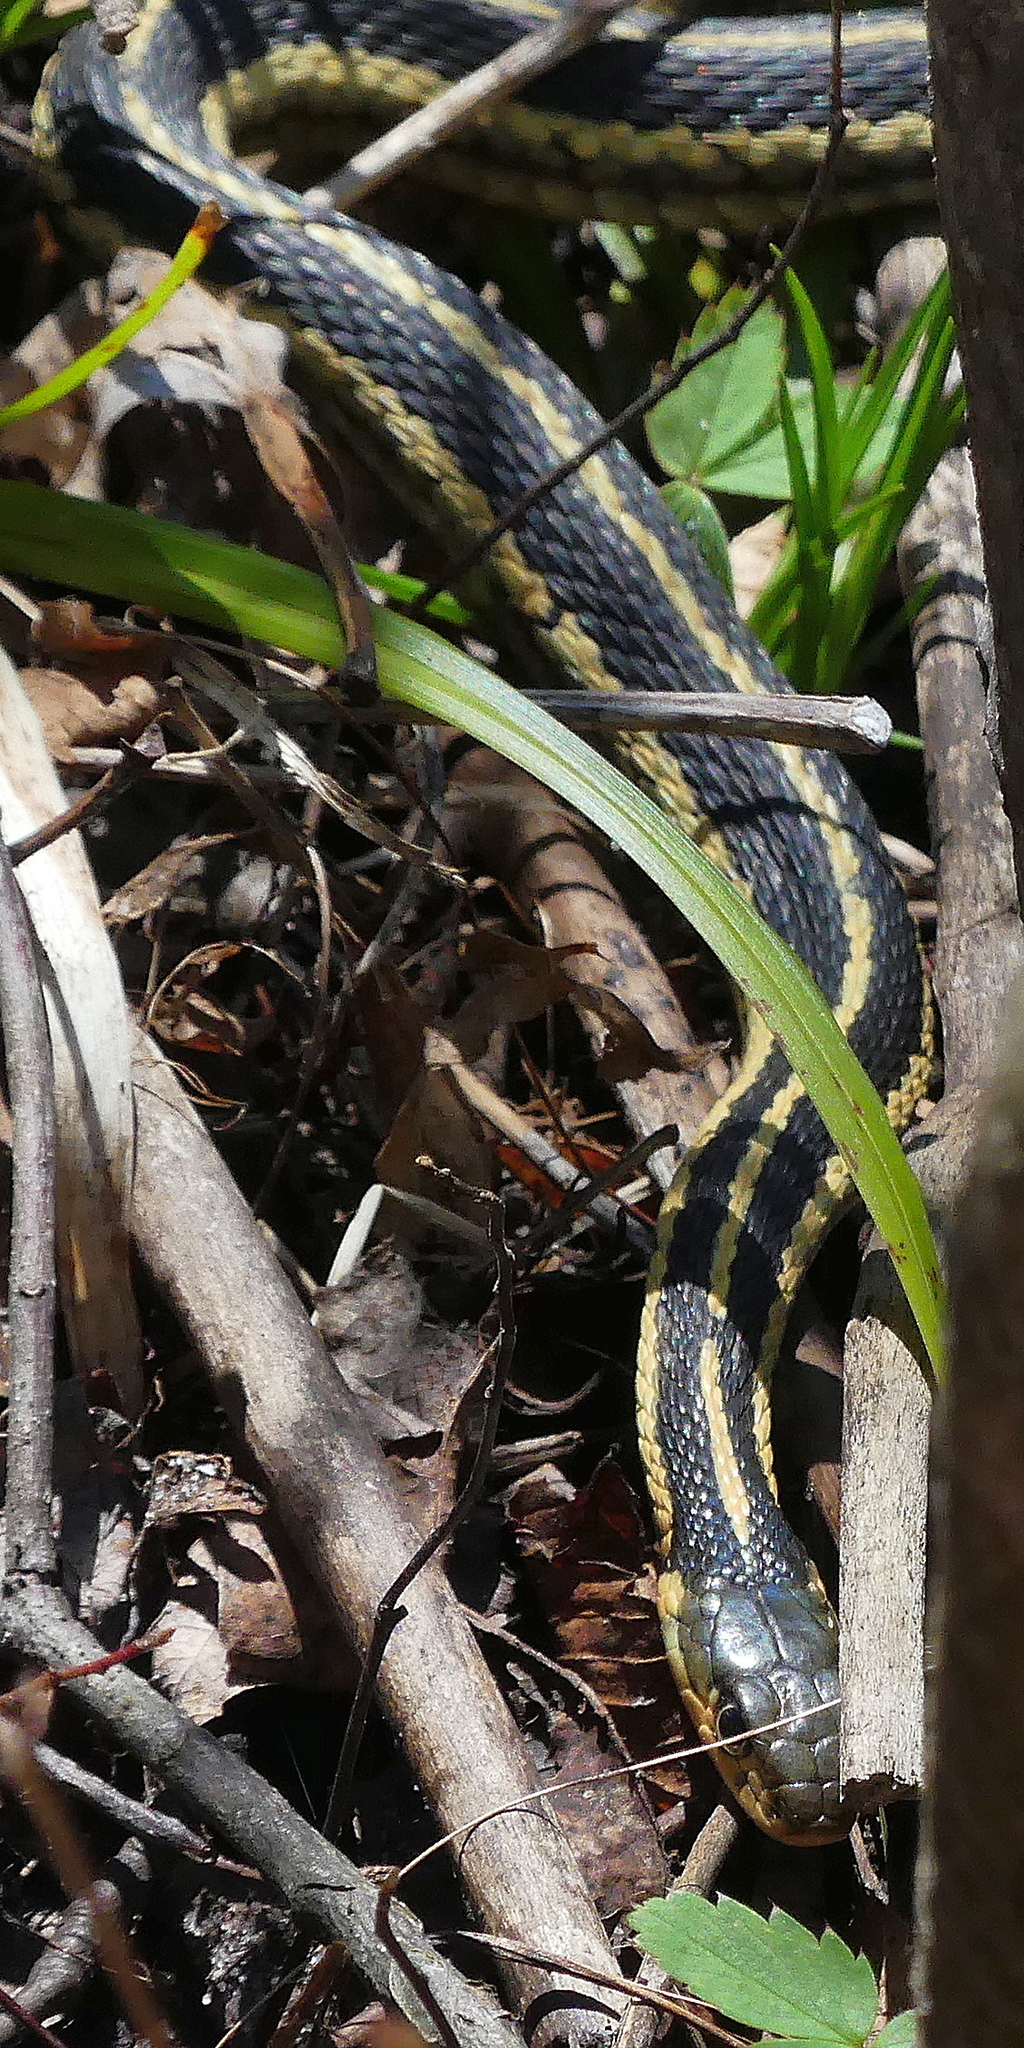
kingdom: Animalia
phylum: Chordata
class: Squamata
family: Colubridae
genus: Thamnophis
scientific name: Thamnophis sirtalis
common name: Common garter snake
